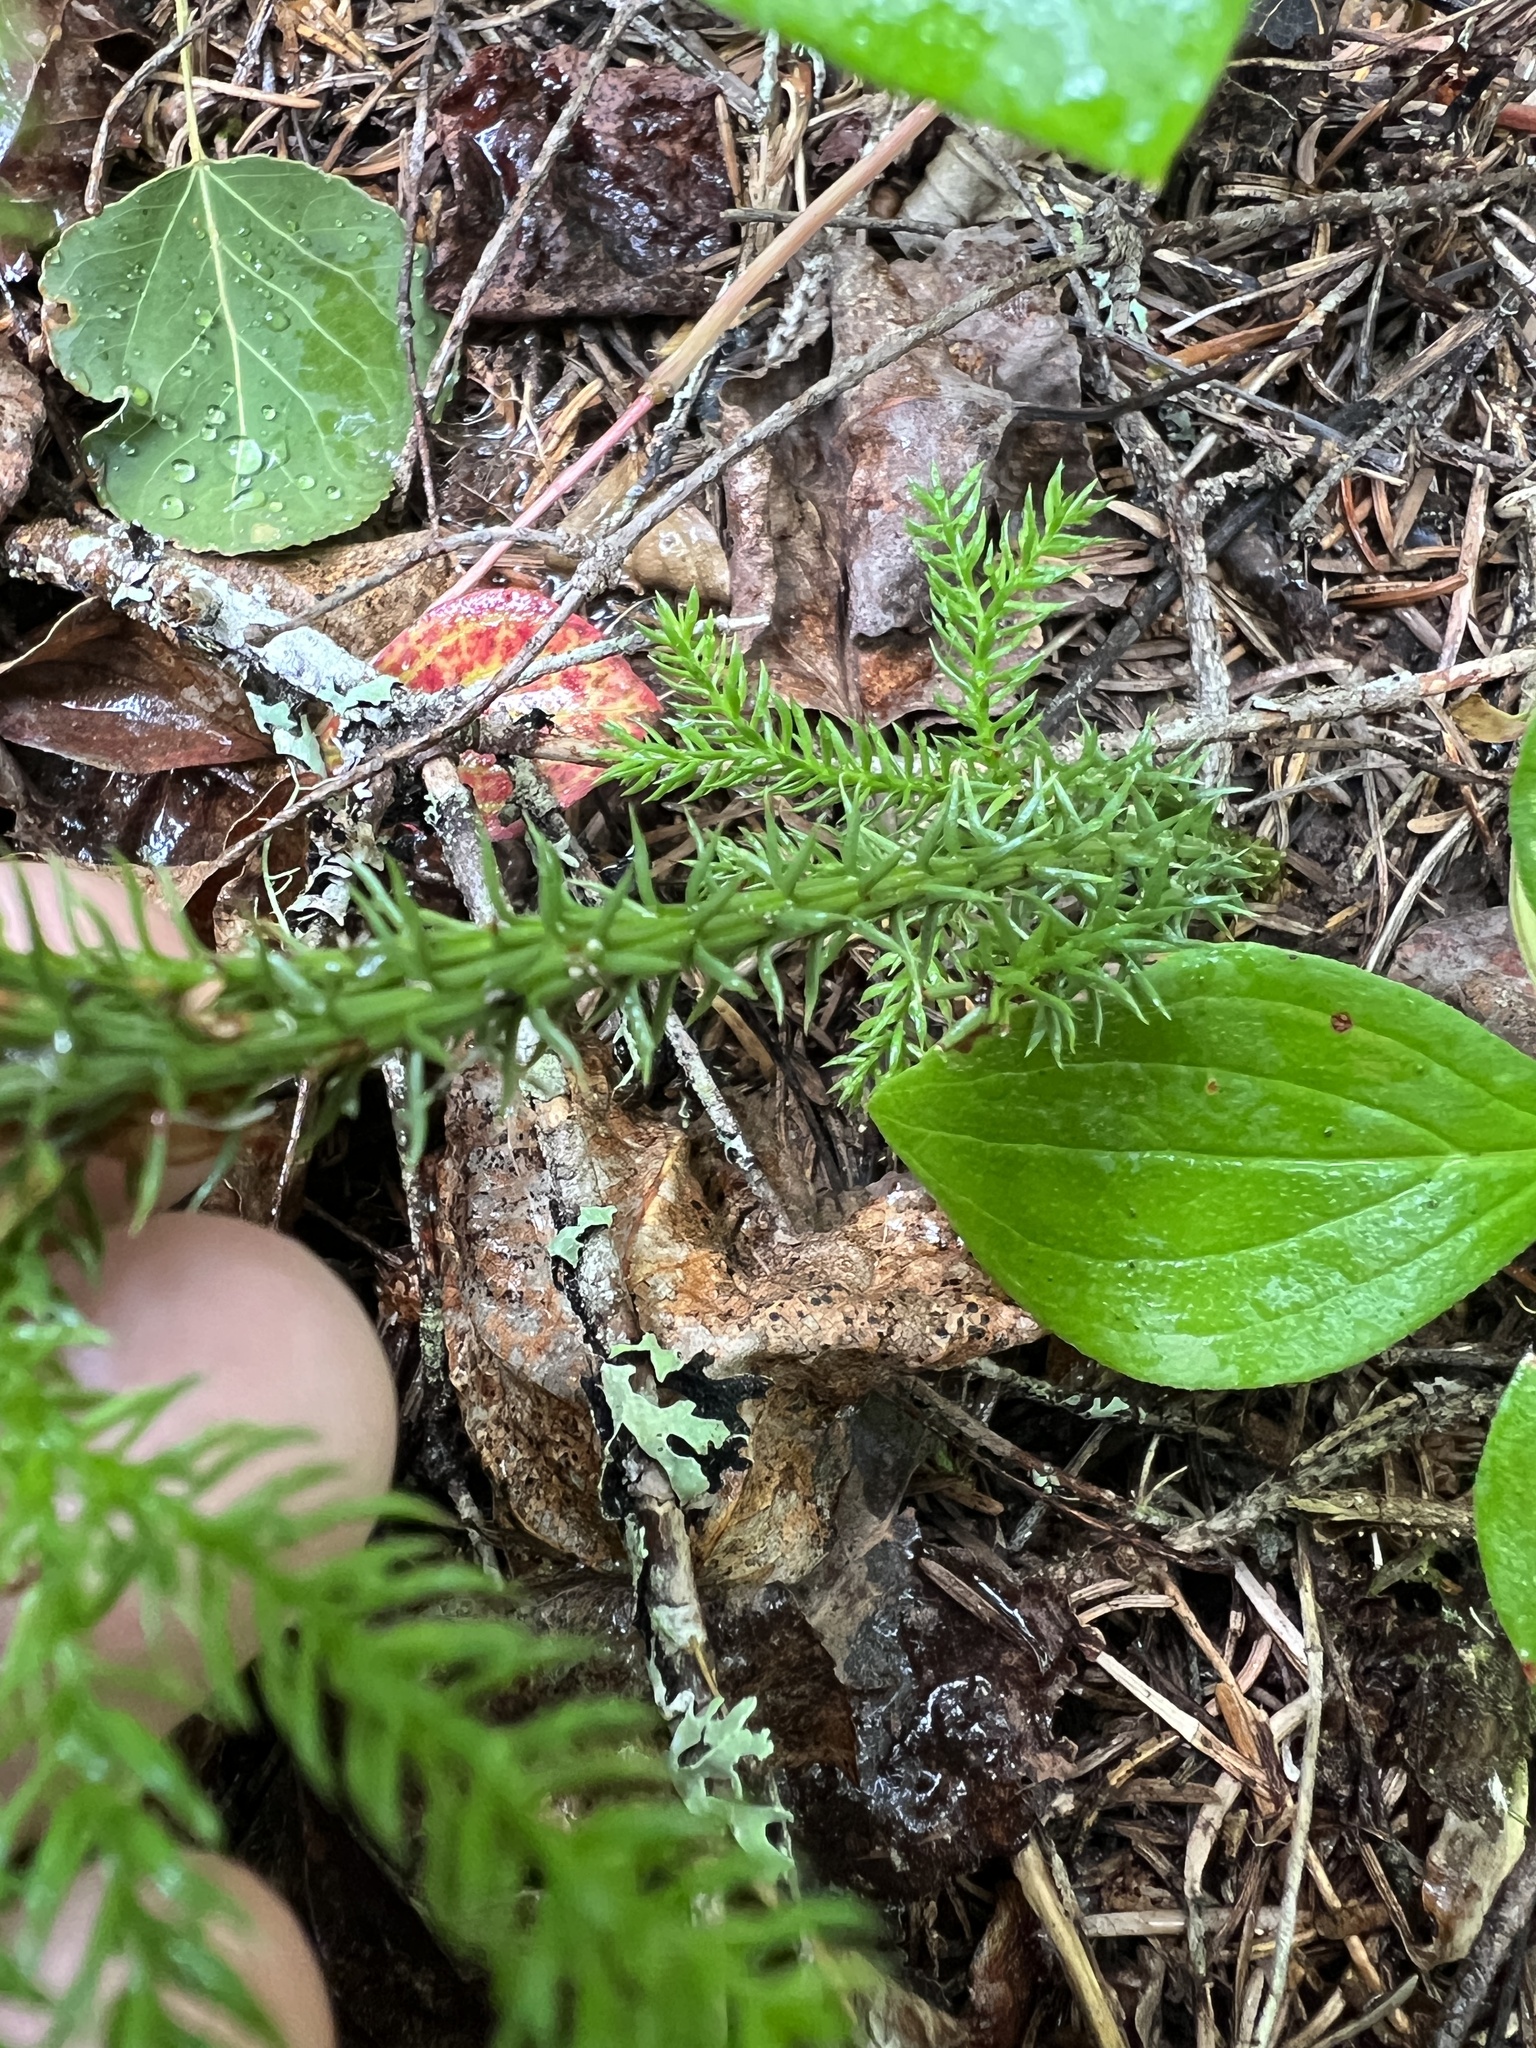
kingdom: Plantae
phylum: Tracheophyta
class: Lycopodiopsida
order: Lycopodiales
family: Lycopodiaceae
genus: Dendrolycopodium
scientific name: Dendrolycopodium dendroideum
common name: Northern tree-clubmoss
